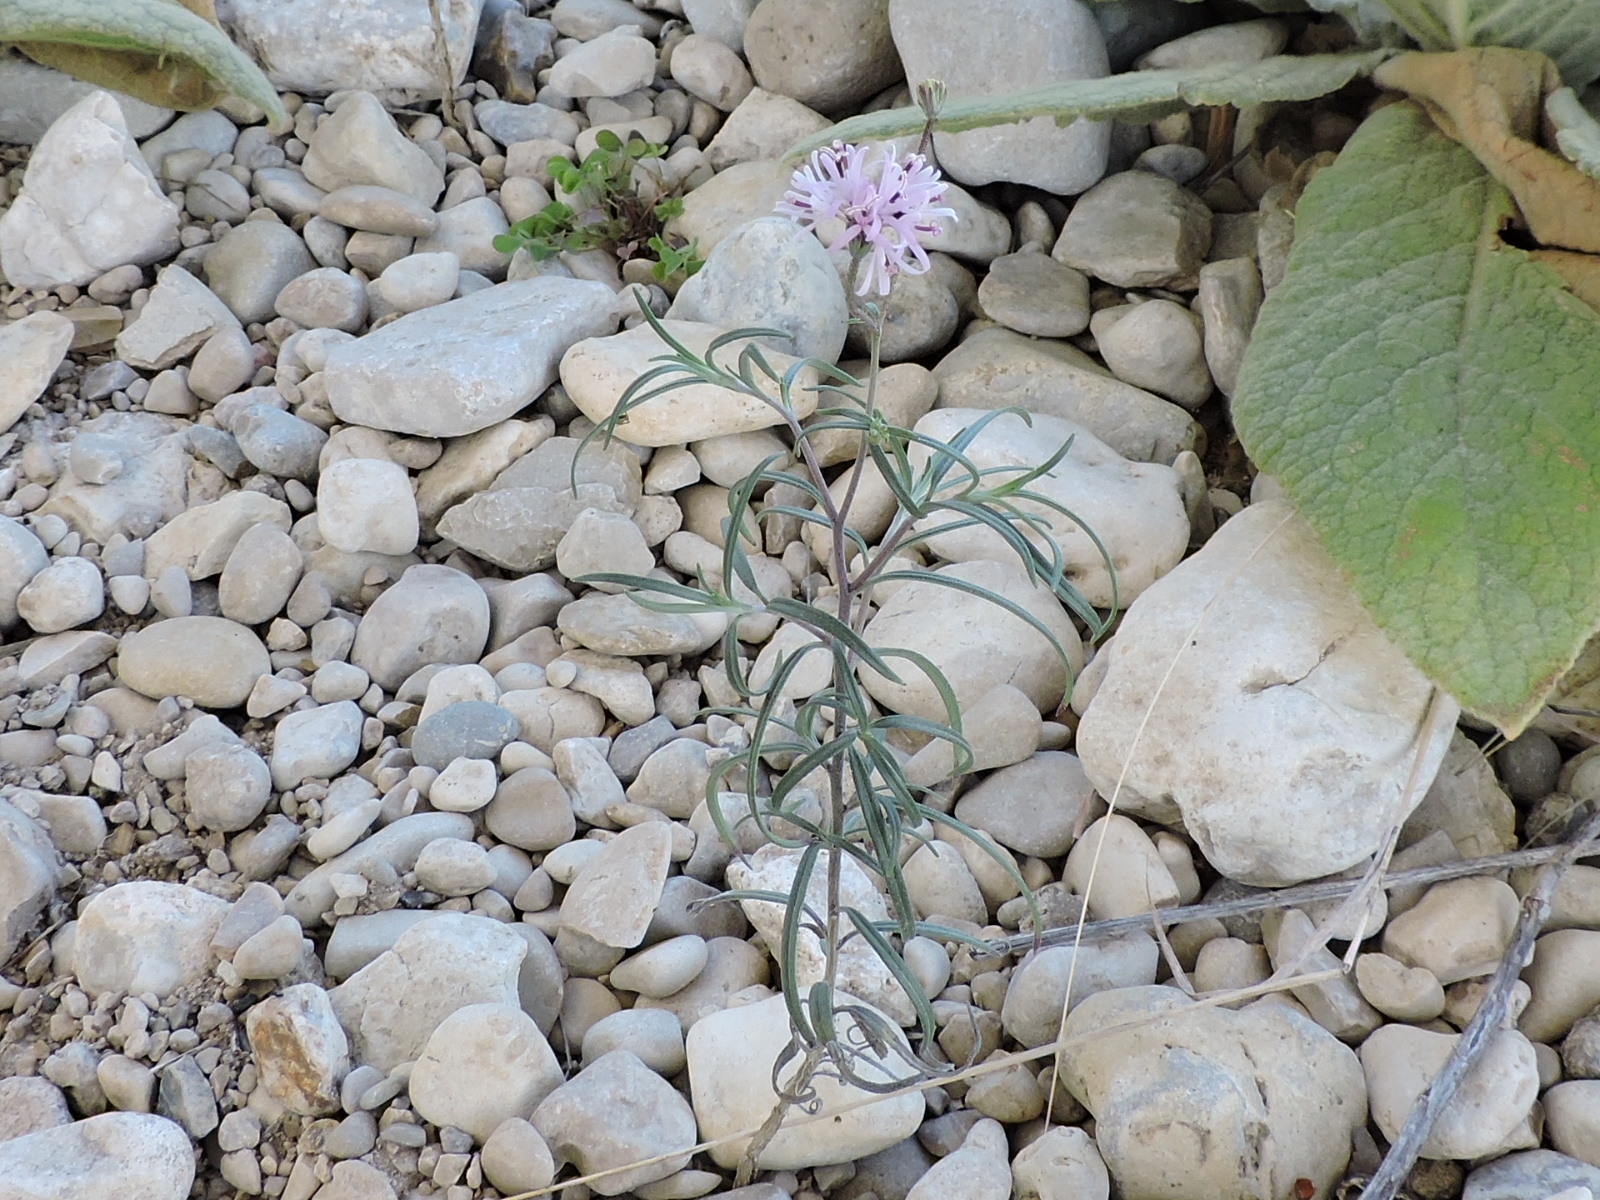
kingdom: Plantae
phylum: Tracheophyta
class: Magnoliopsida
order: Asterales
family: Asteraceae
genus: Palafoxia
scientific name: Palafoxia callosa
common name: Small palafox
